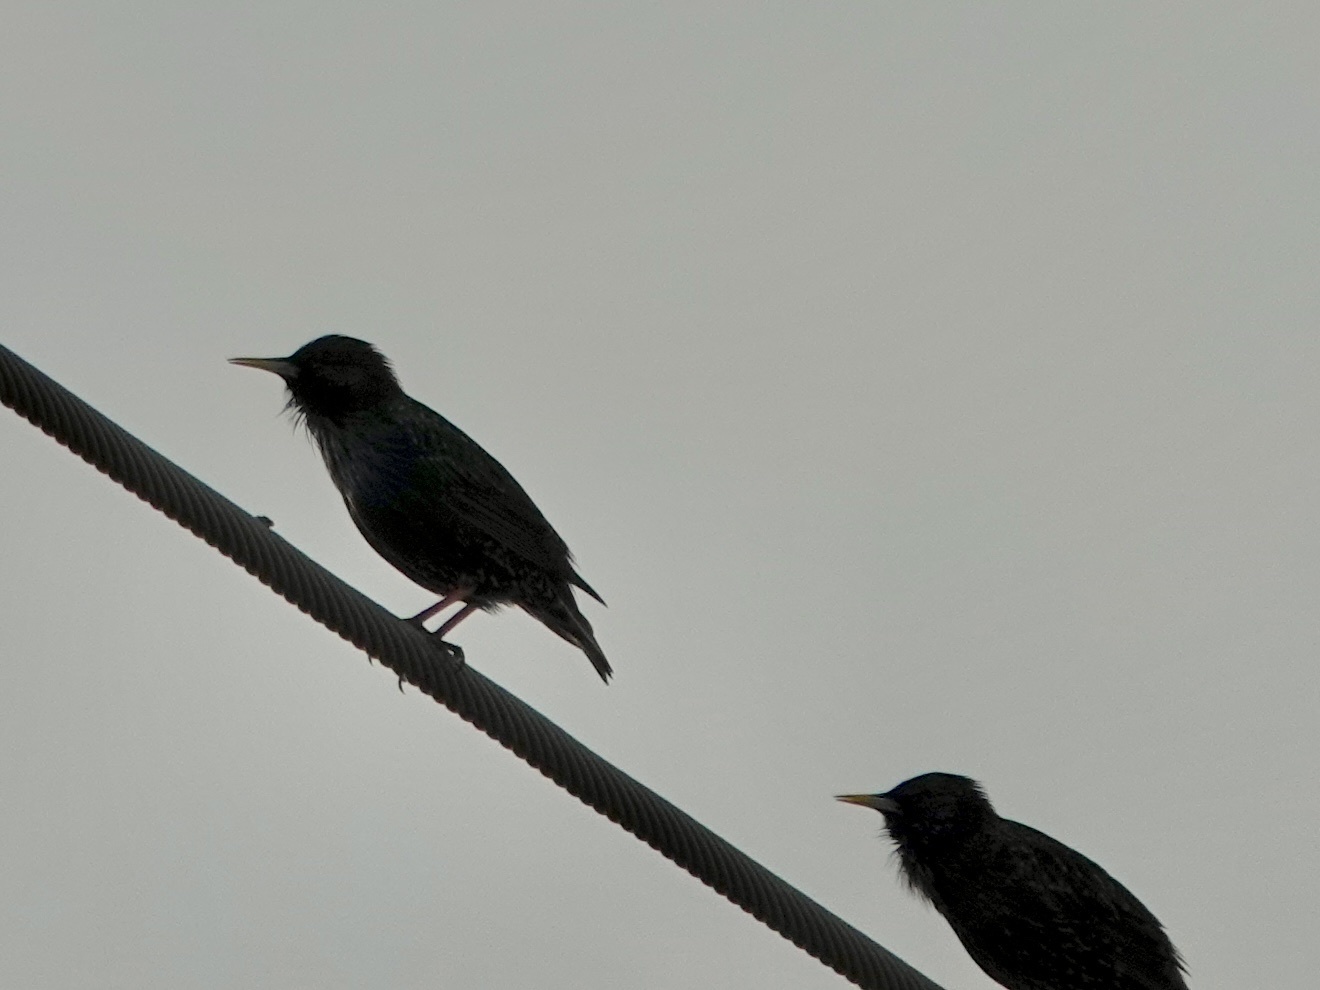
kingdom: Animalia
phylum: Chordata
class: Aves
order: Passeriformes
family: Sturnidae
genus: Sturnus
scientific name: Sturnus vulgaris
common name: Common starling
